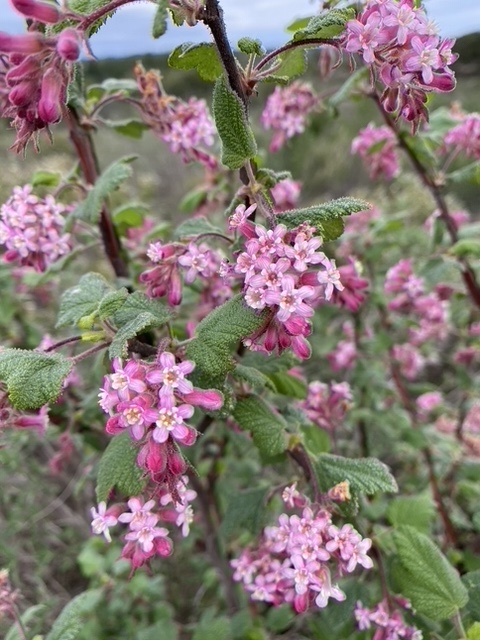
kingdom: Plantae
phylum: Tracheophyta
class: Magnoliopsida
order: Saxifragales
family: Grossulariaceae
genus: Ribes
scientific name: Ribes malvaceum
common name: Chaparral currant
